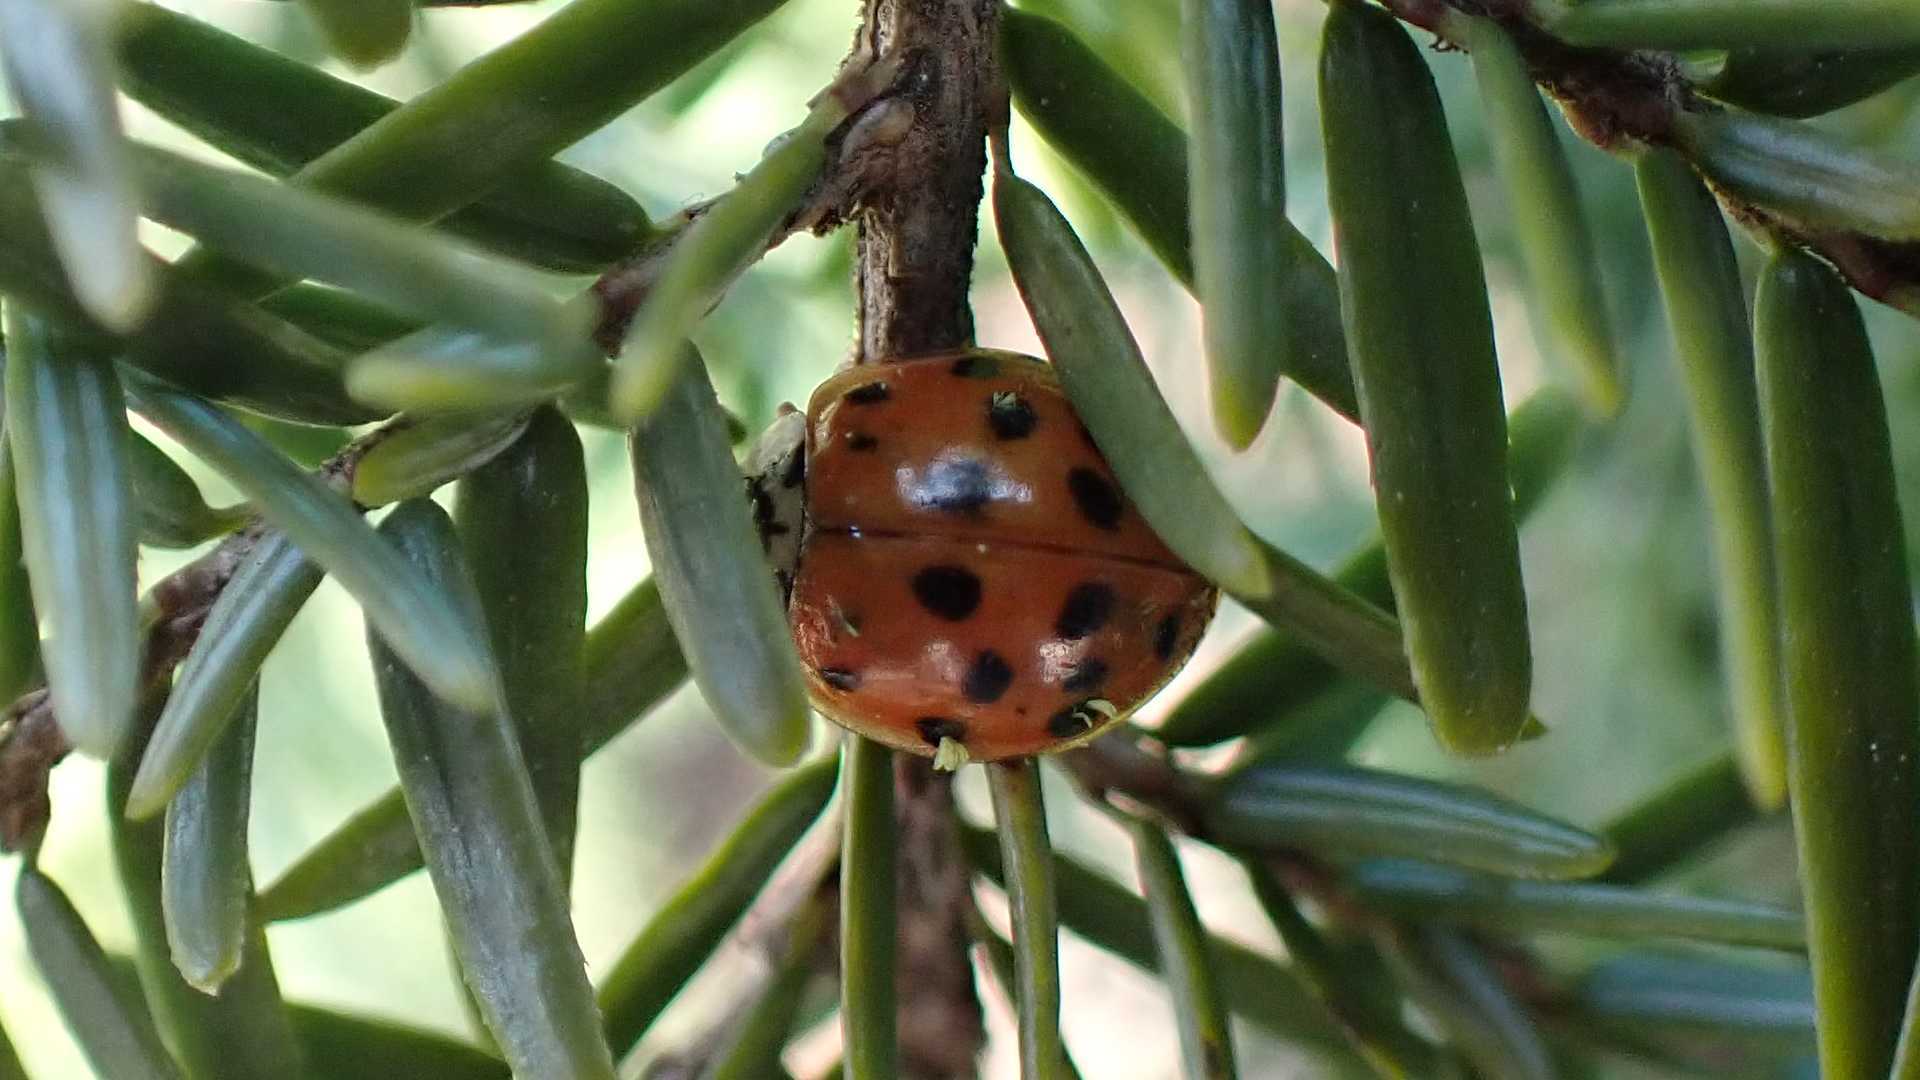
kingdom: Fungi
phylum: Ascomycota
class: Laboulbeniomycetes
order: Laboulbeniales
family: Laboulbeniaceae
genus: Hesperomyces
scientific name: Hesperomyces harmoniae
